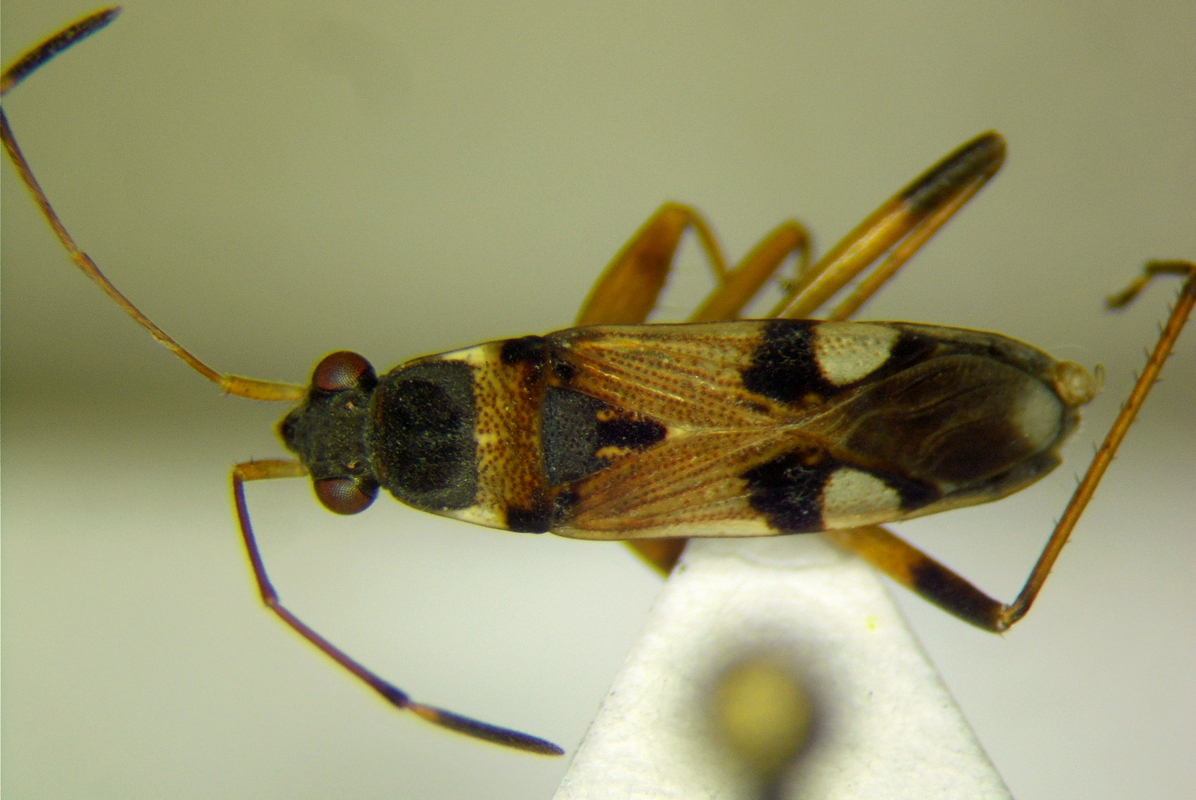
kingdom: Animalia
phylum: Arthropoda
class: Insecta
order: Hemiptera
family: Rhyparochromidae
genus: Beosus
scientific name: Beosus quadripunctatus
